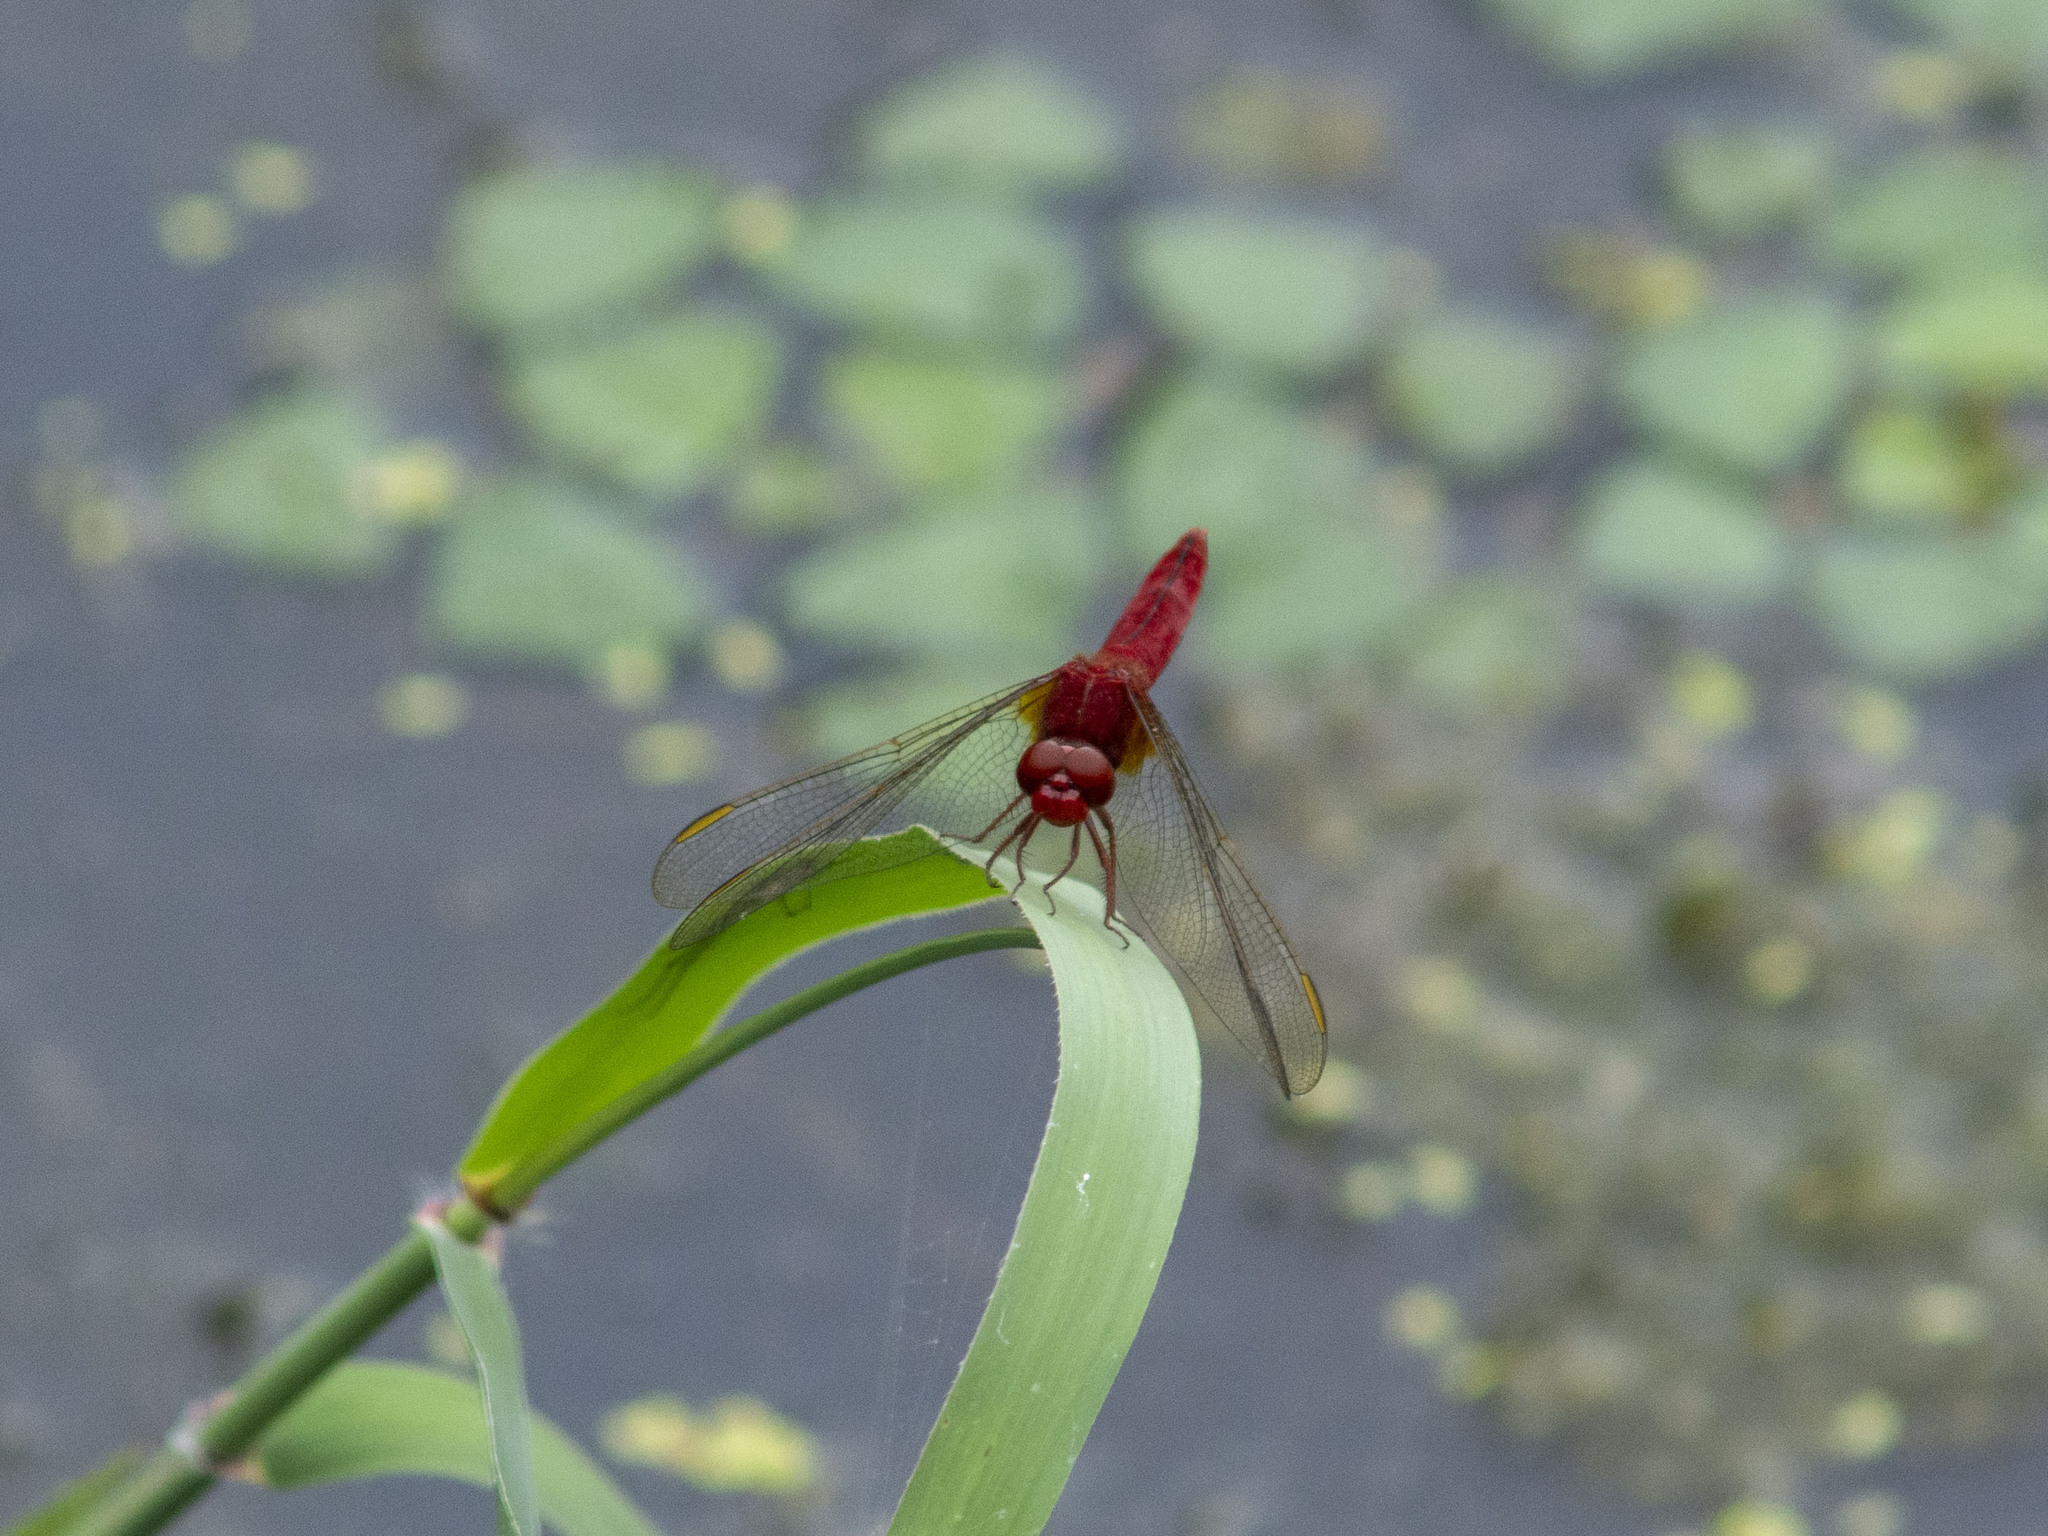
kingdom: Animalia
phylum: Arthropoda
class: Insecta
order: Odonata
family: Libellulidae
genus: Crocothemis
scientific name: Crocothemis servilia
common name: Scarlet skimmer
